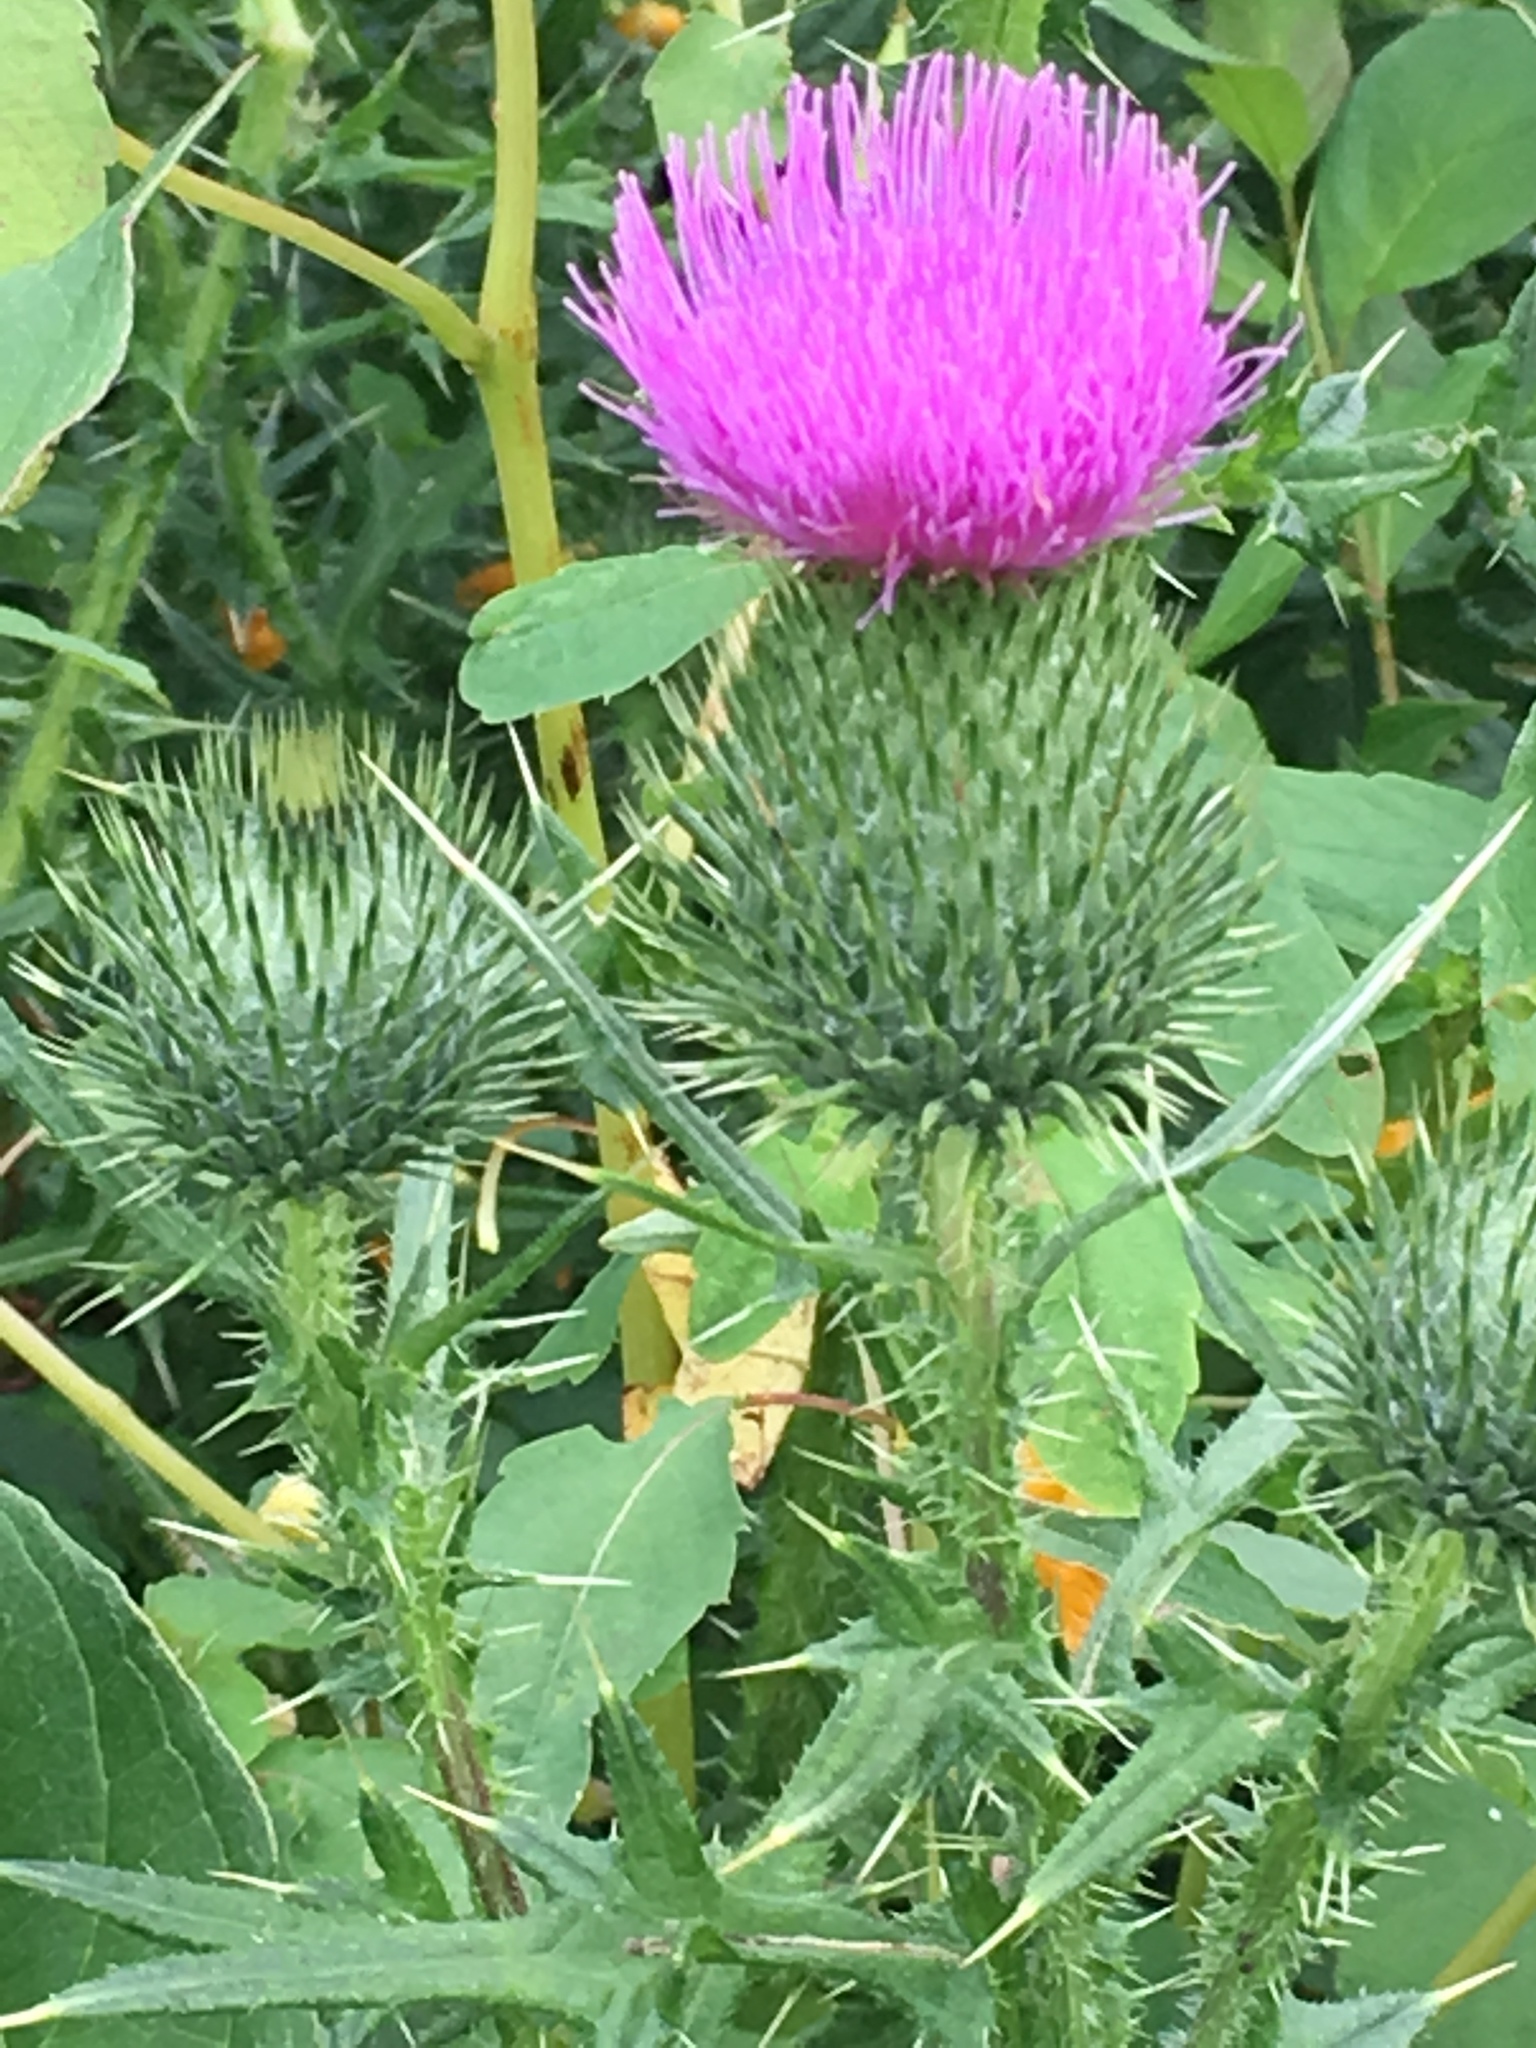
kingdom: Plantae
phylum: Tracheophyta
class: Magnoliopsida
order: Asterales
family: Asteraceae
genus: Cirsium
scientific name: Cirsium vulgare
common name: Bull thistle
